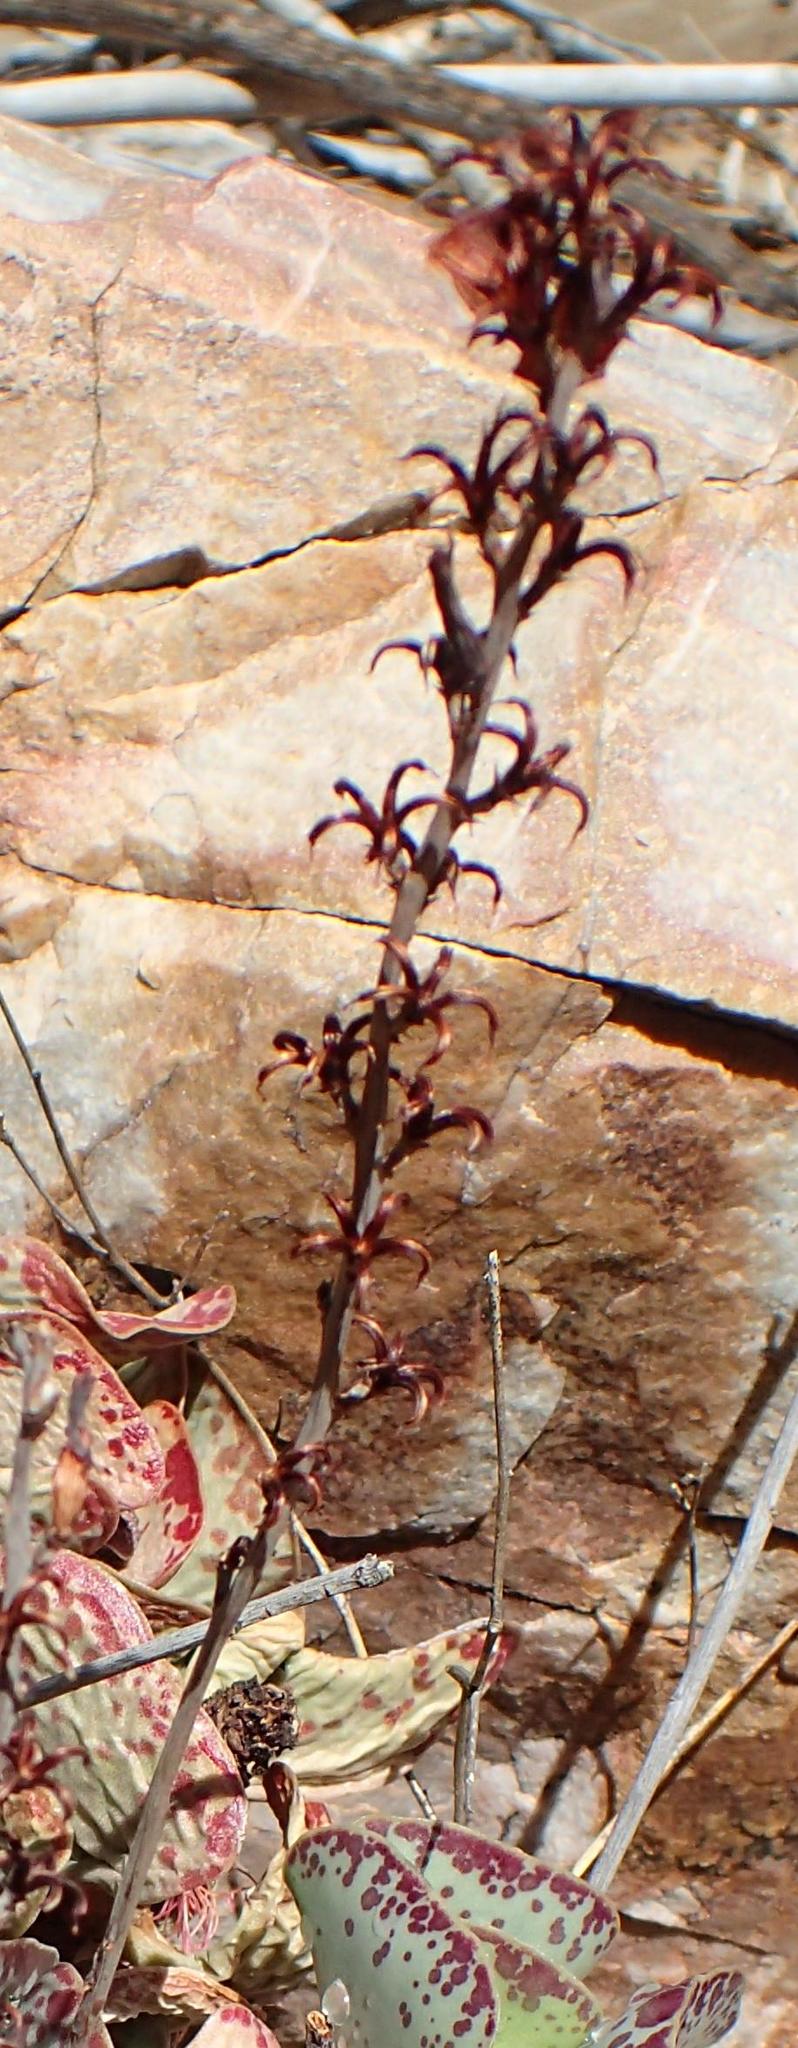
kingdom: Plantae
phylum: Tracheophyta
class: Magnoliopsida
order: Saxifragales
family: Crassulaceae
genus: Adromischus
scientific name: Adromischus triflorus
